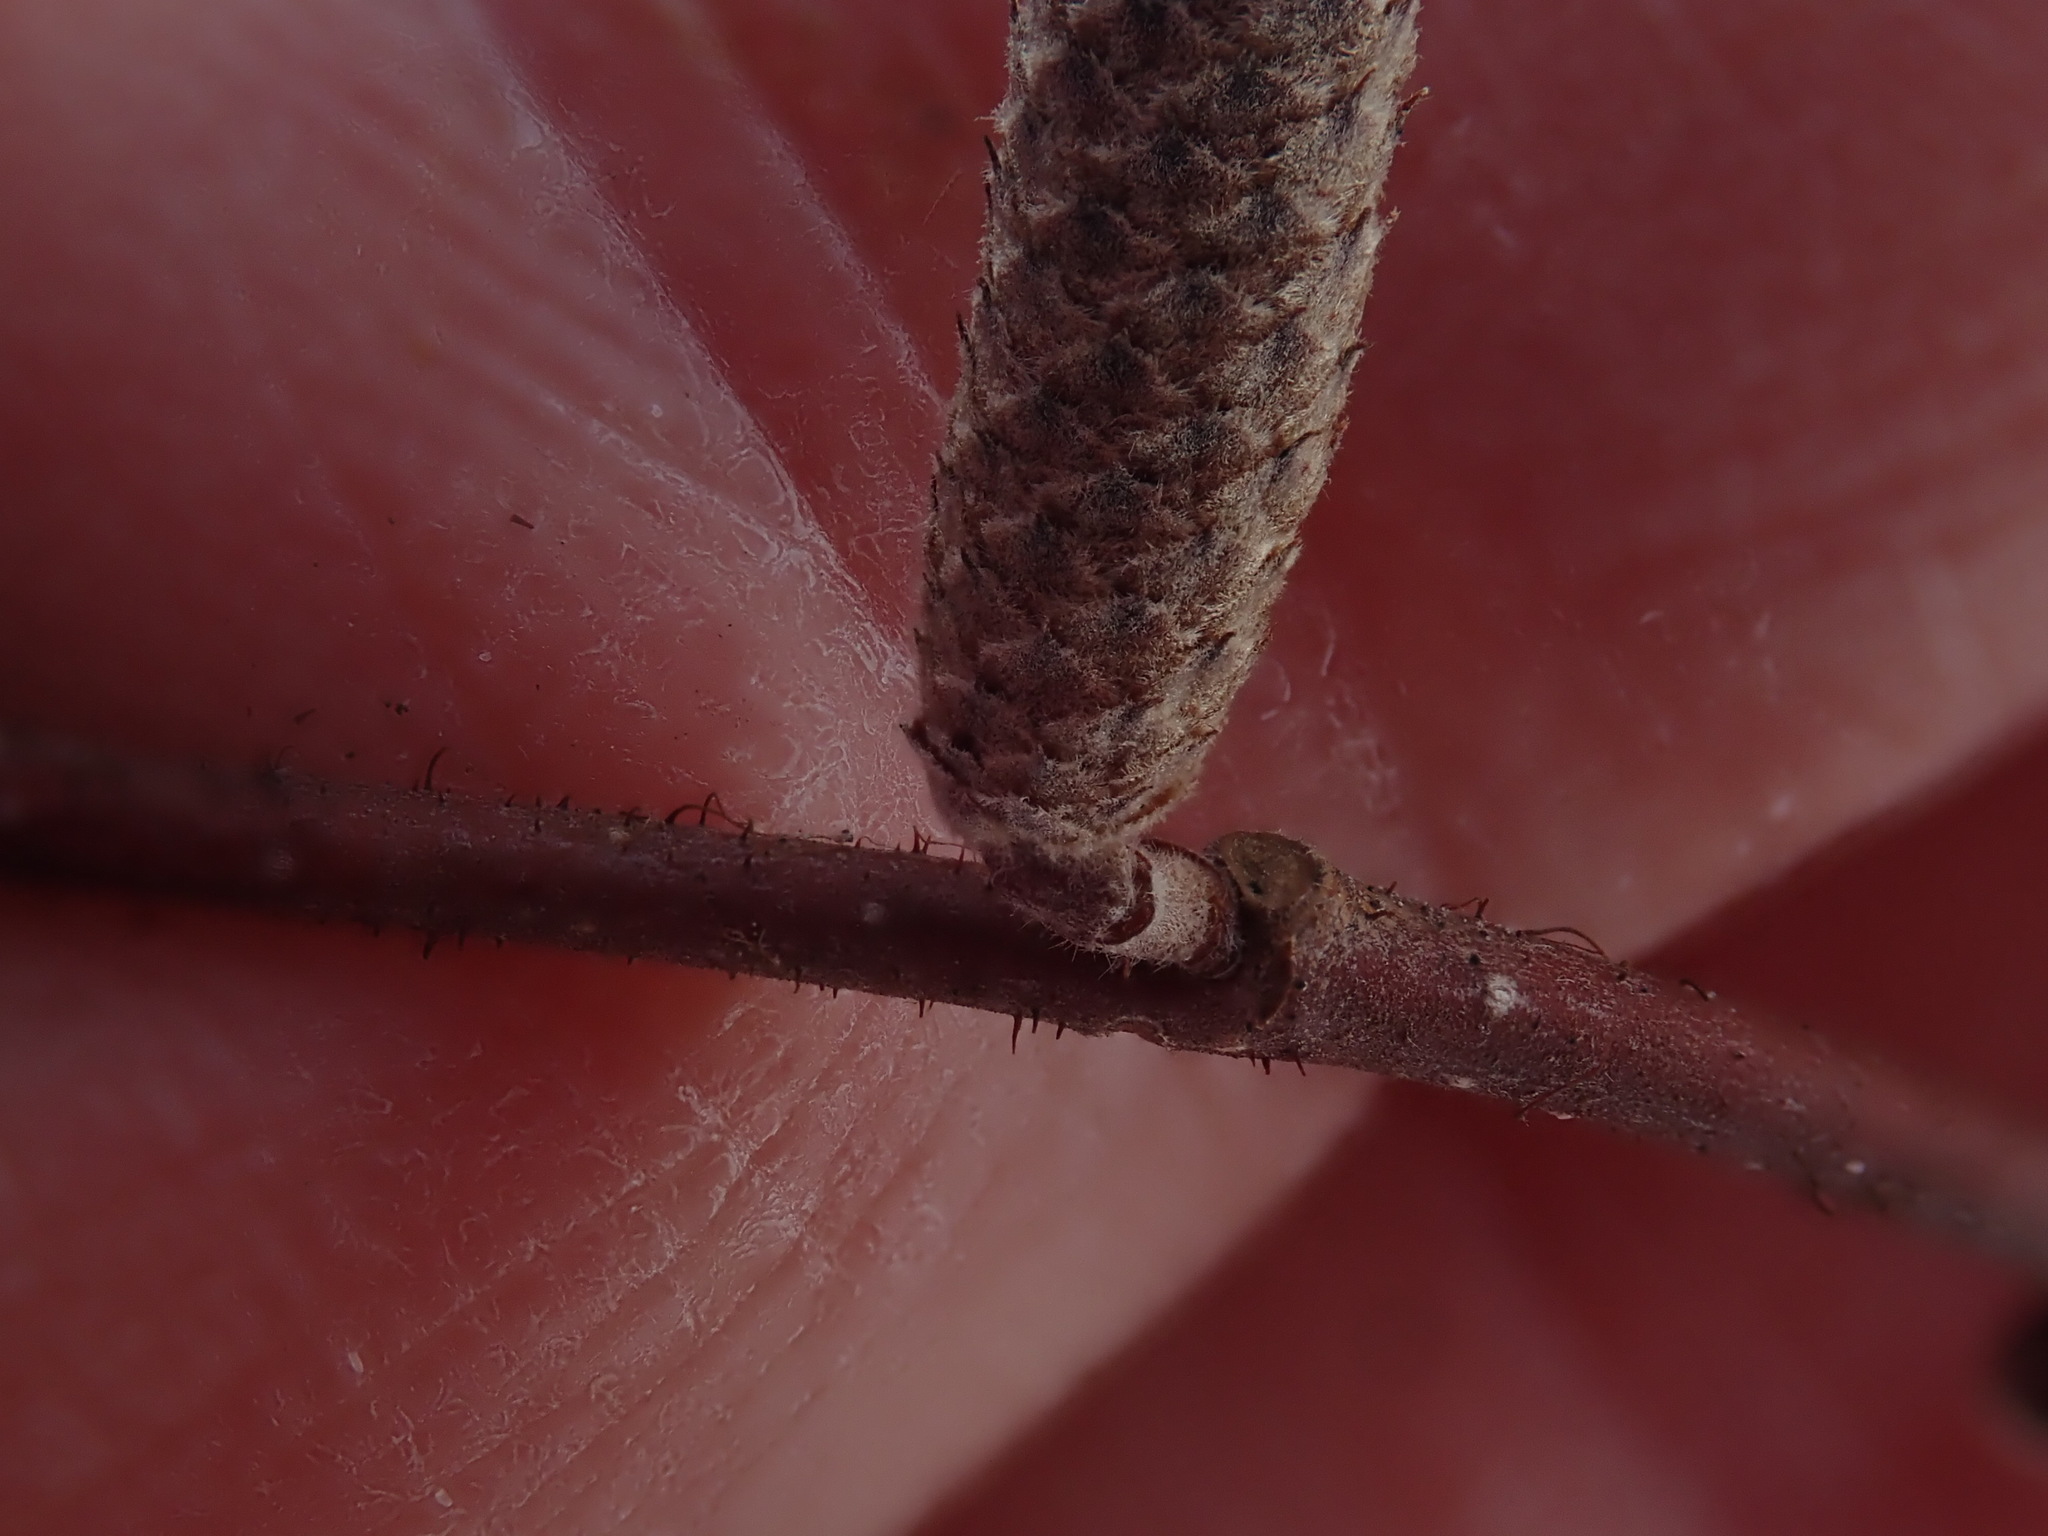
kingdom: Plantae
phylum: Tracheophyta
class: Magnoliopsida
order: Fagales
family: Betulaceae
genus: Corylus
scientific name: Corylus americana
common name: American hazel
